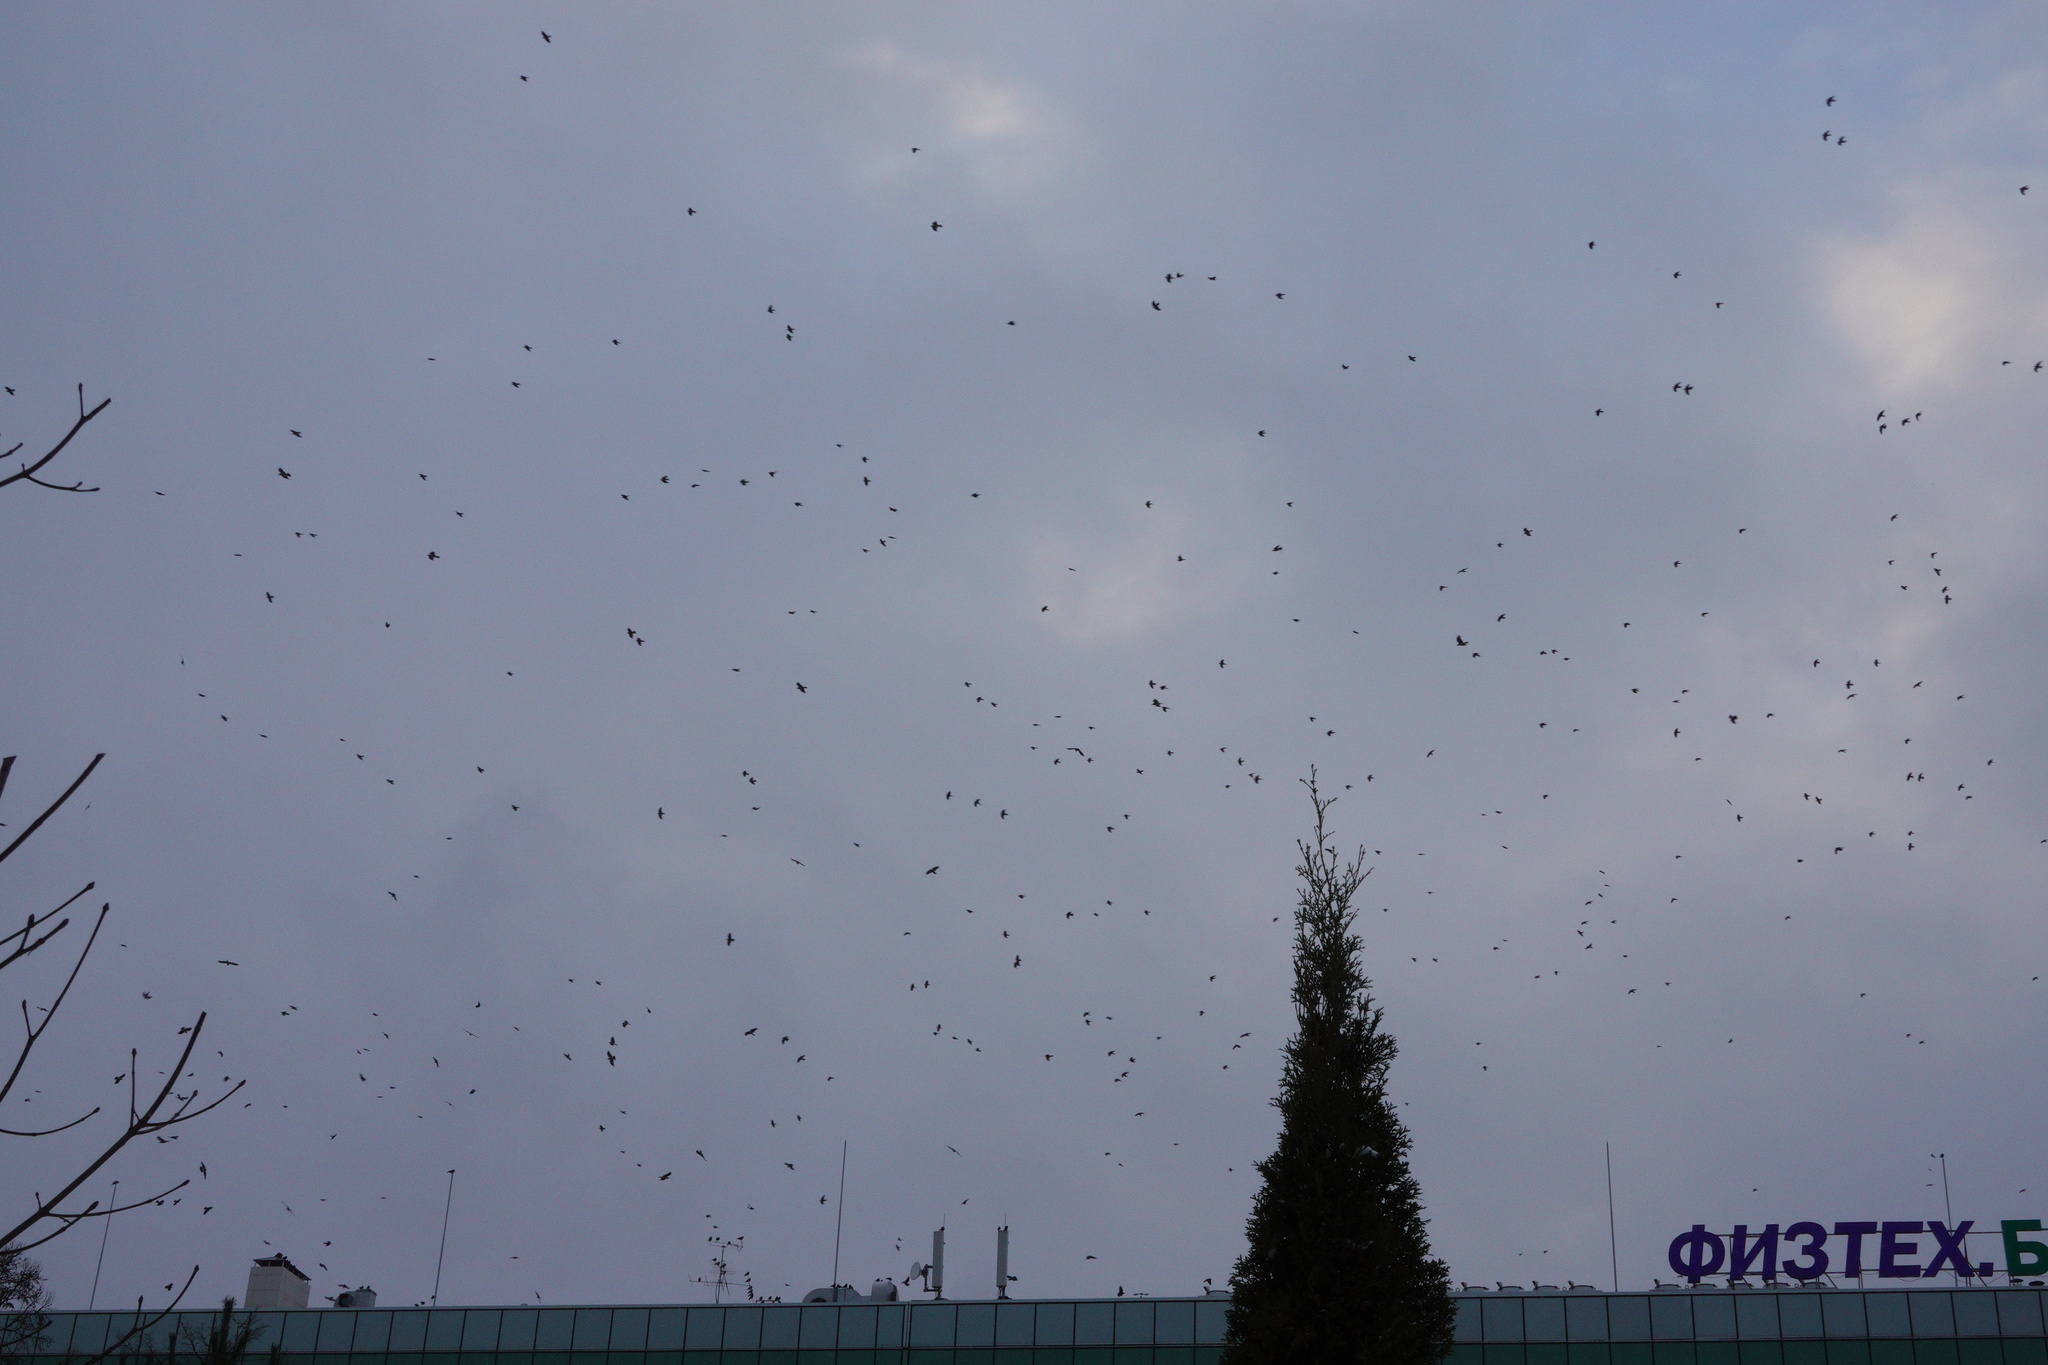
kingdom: Animalia
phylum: Chordata
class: Aves
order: Passeriformes
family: Corvidae
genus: Coloeus
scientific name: Coloeus monedula
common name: Western jackdaw
